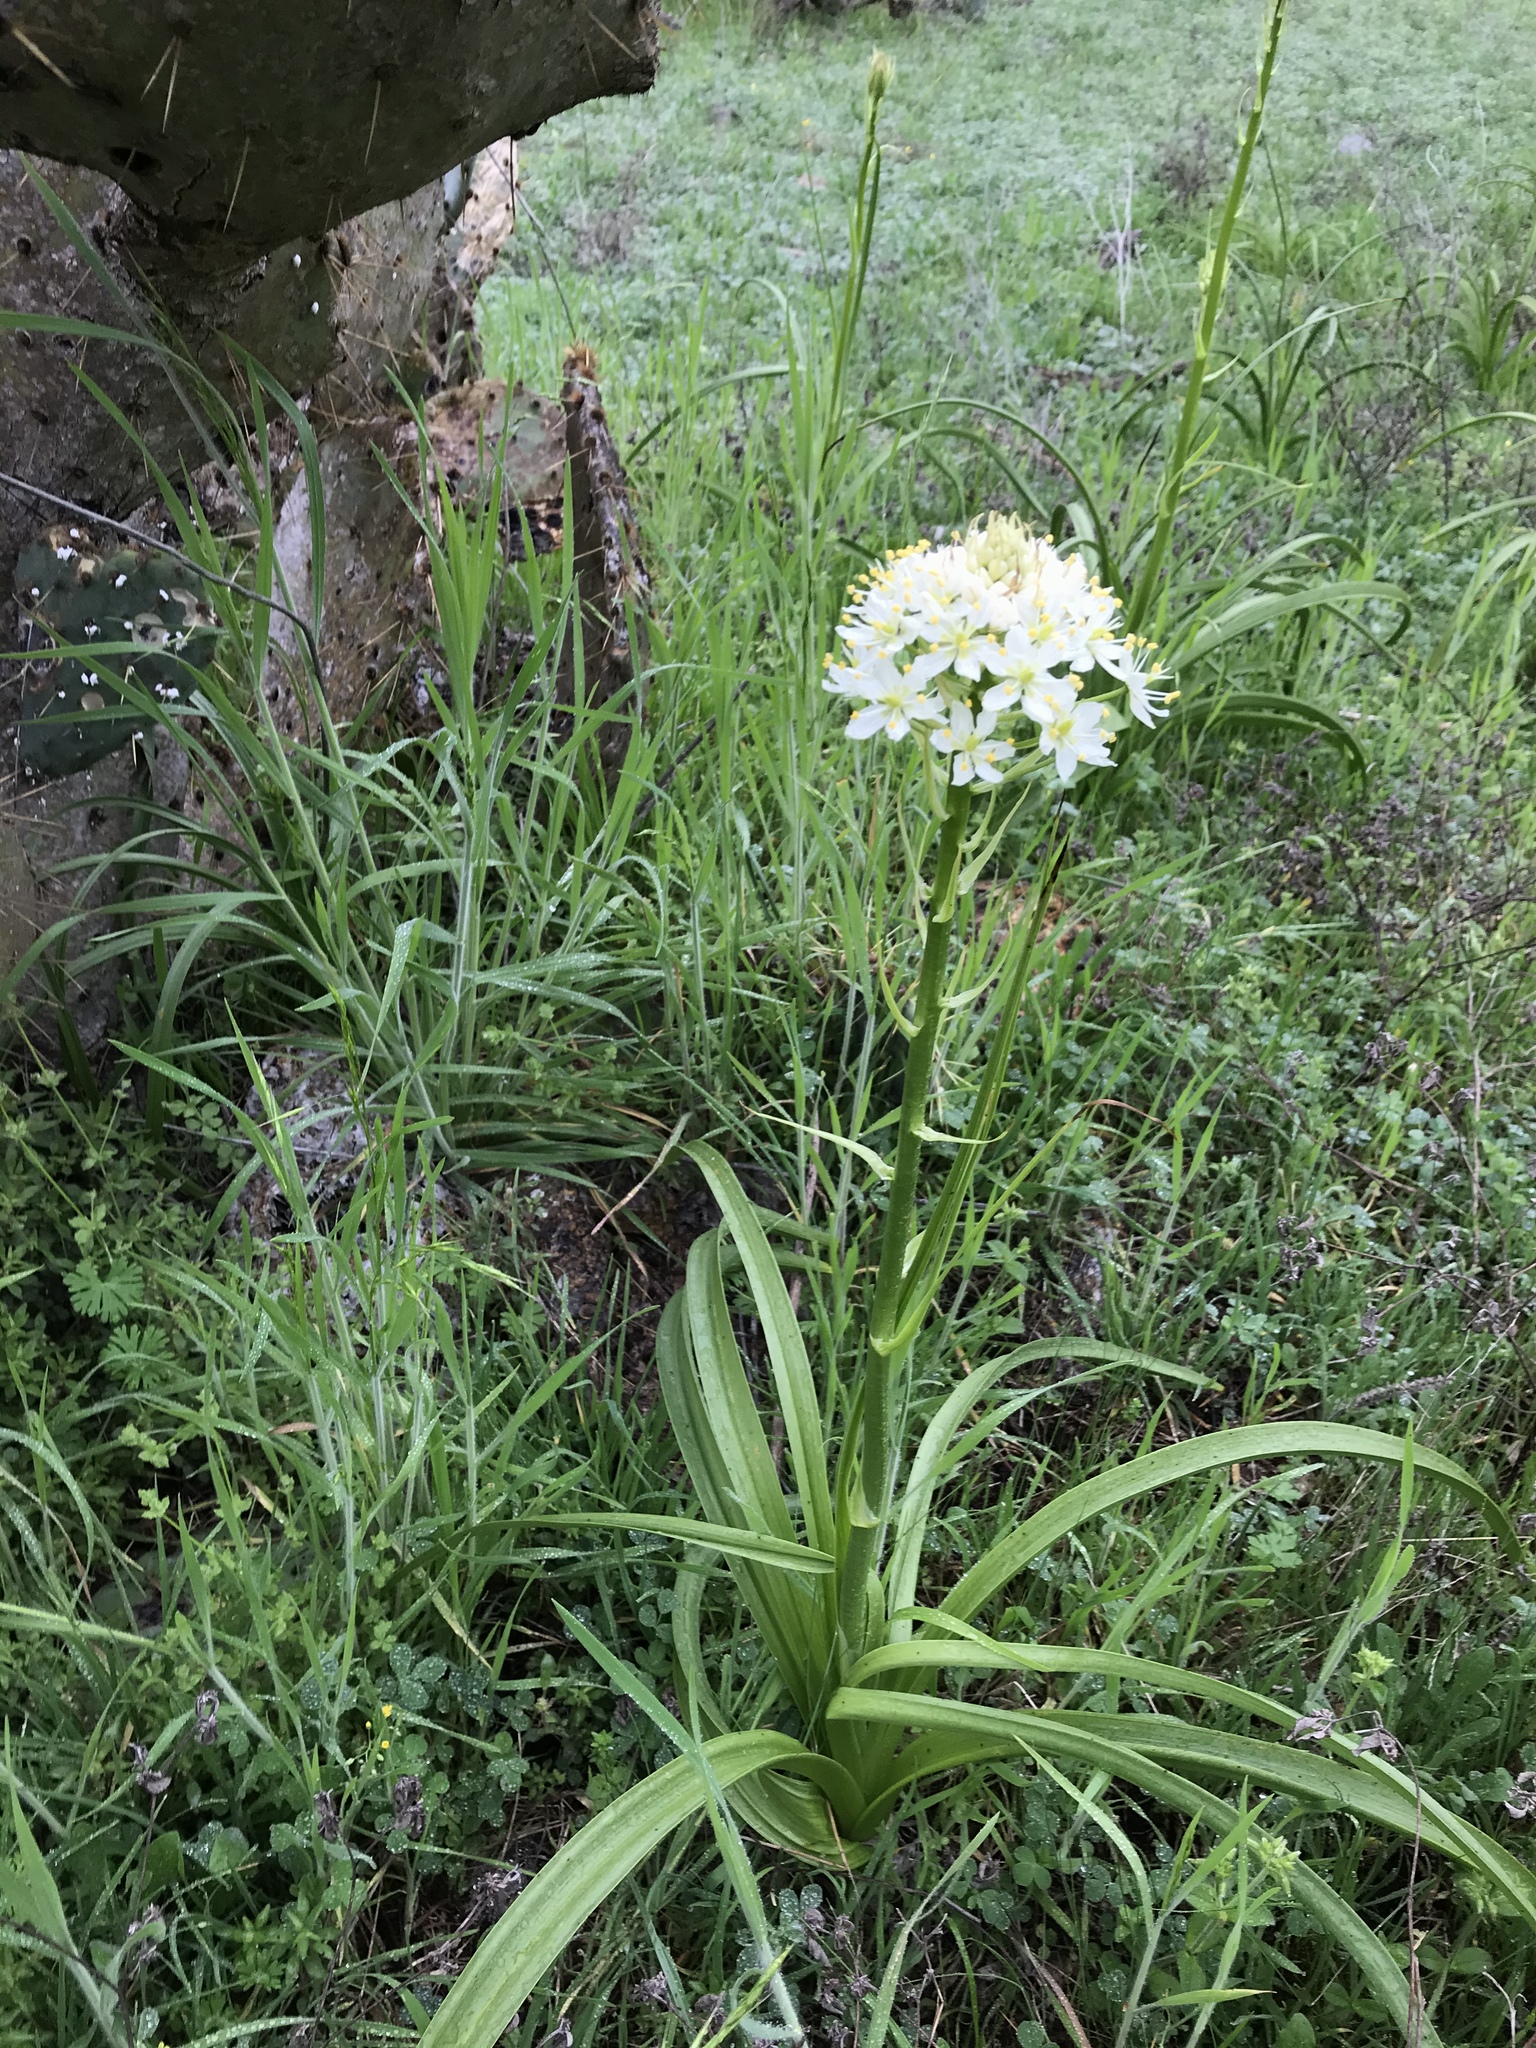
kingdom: Plantae
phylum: Tracheophyta
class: Liliopsida
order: Liliales
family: Melanthiaceae
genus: Toxicoscordion
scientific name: Toxicoscordion nuttallii
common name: Poison sego
